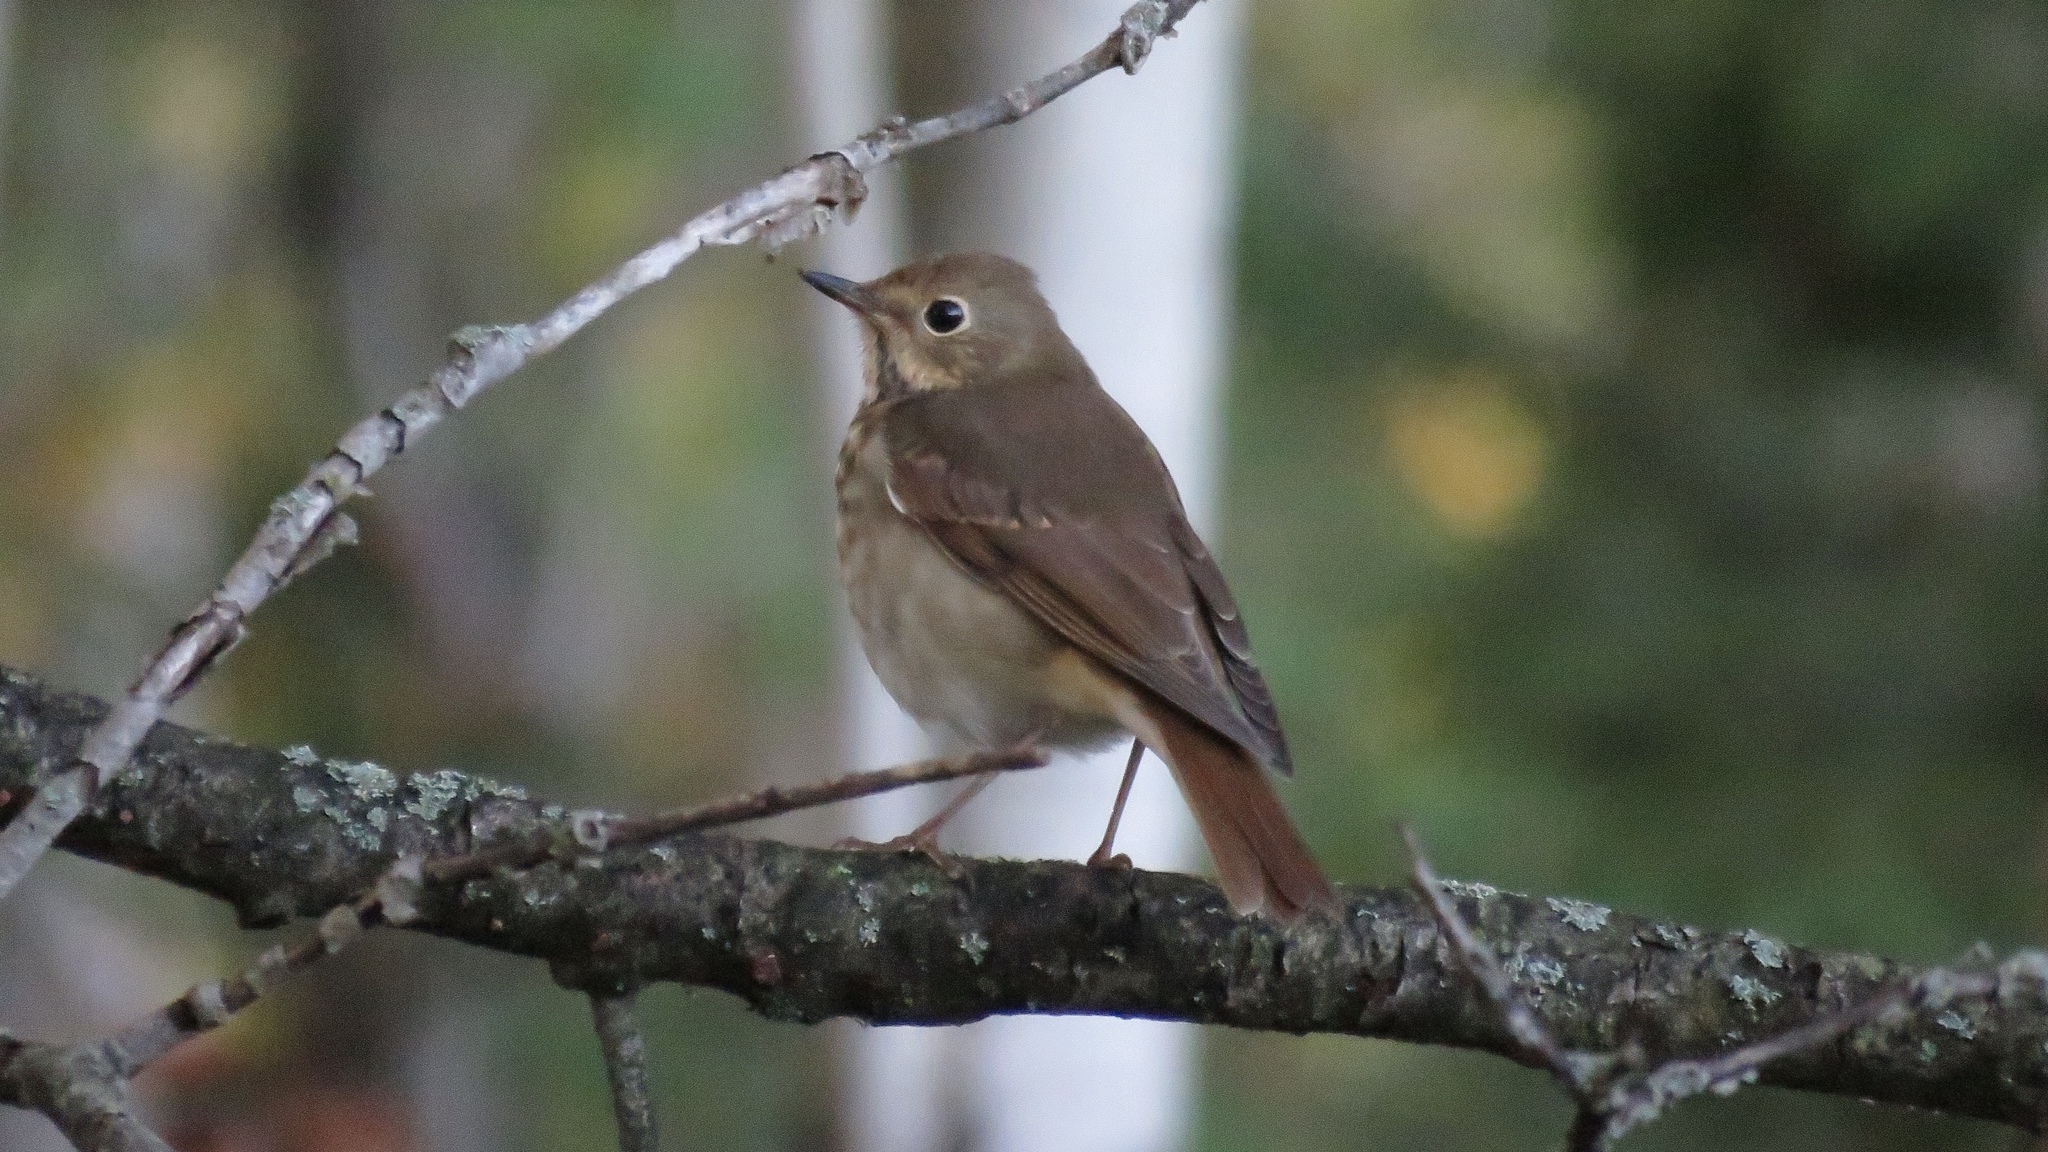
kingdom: Animalia
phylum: Chordata
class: Aves
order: Passeriformes
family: Turdidae
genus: Catharus
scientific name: Catharus guttatus
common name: Hermit thrush
